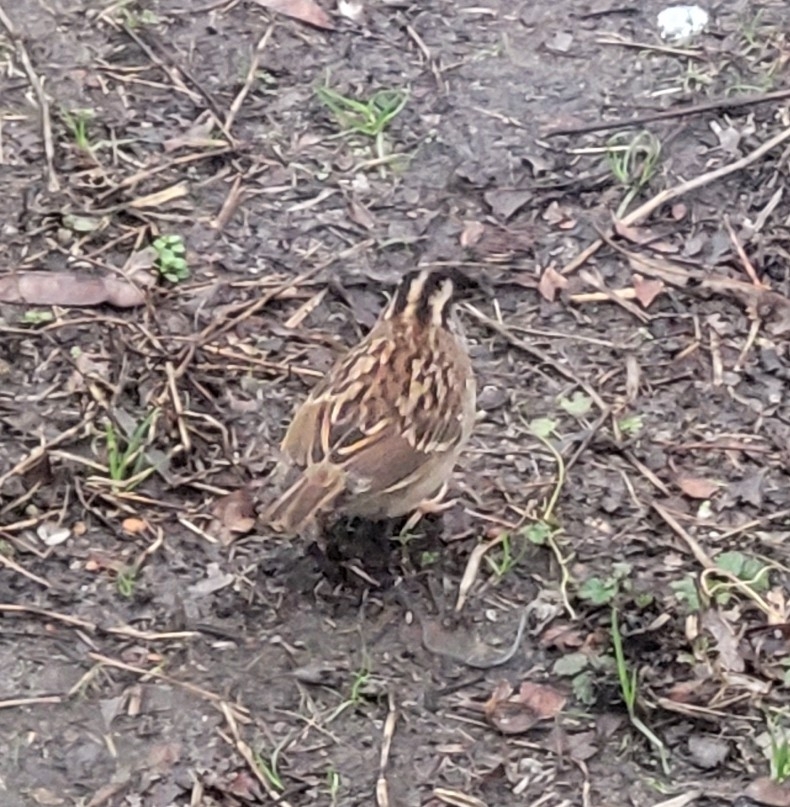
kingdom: Animalia
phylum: Chordata
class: Aves
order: Passeriformes
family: Passerellidae
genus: Zonotrichia
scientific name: Zonotrichia albicollis
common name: White-throated sparrow
